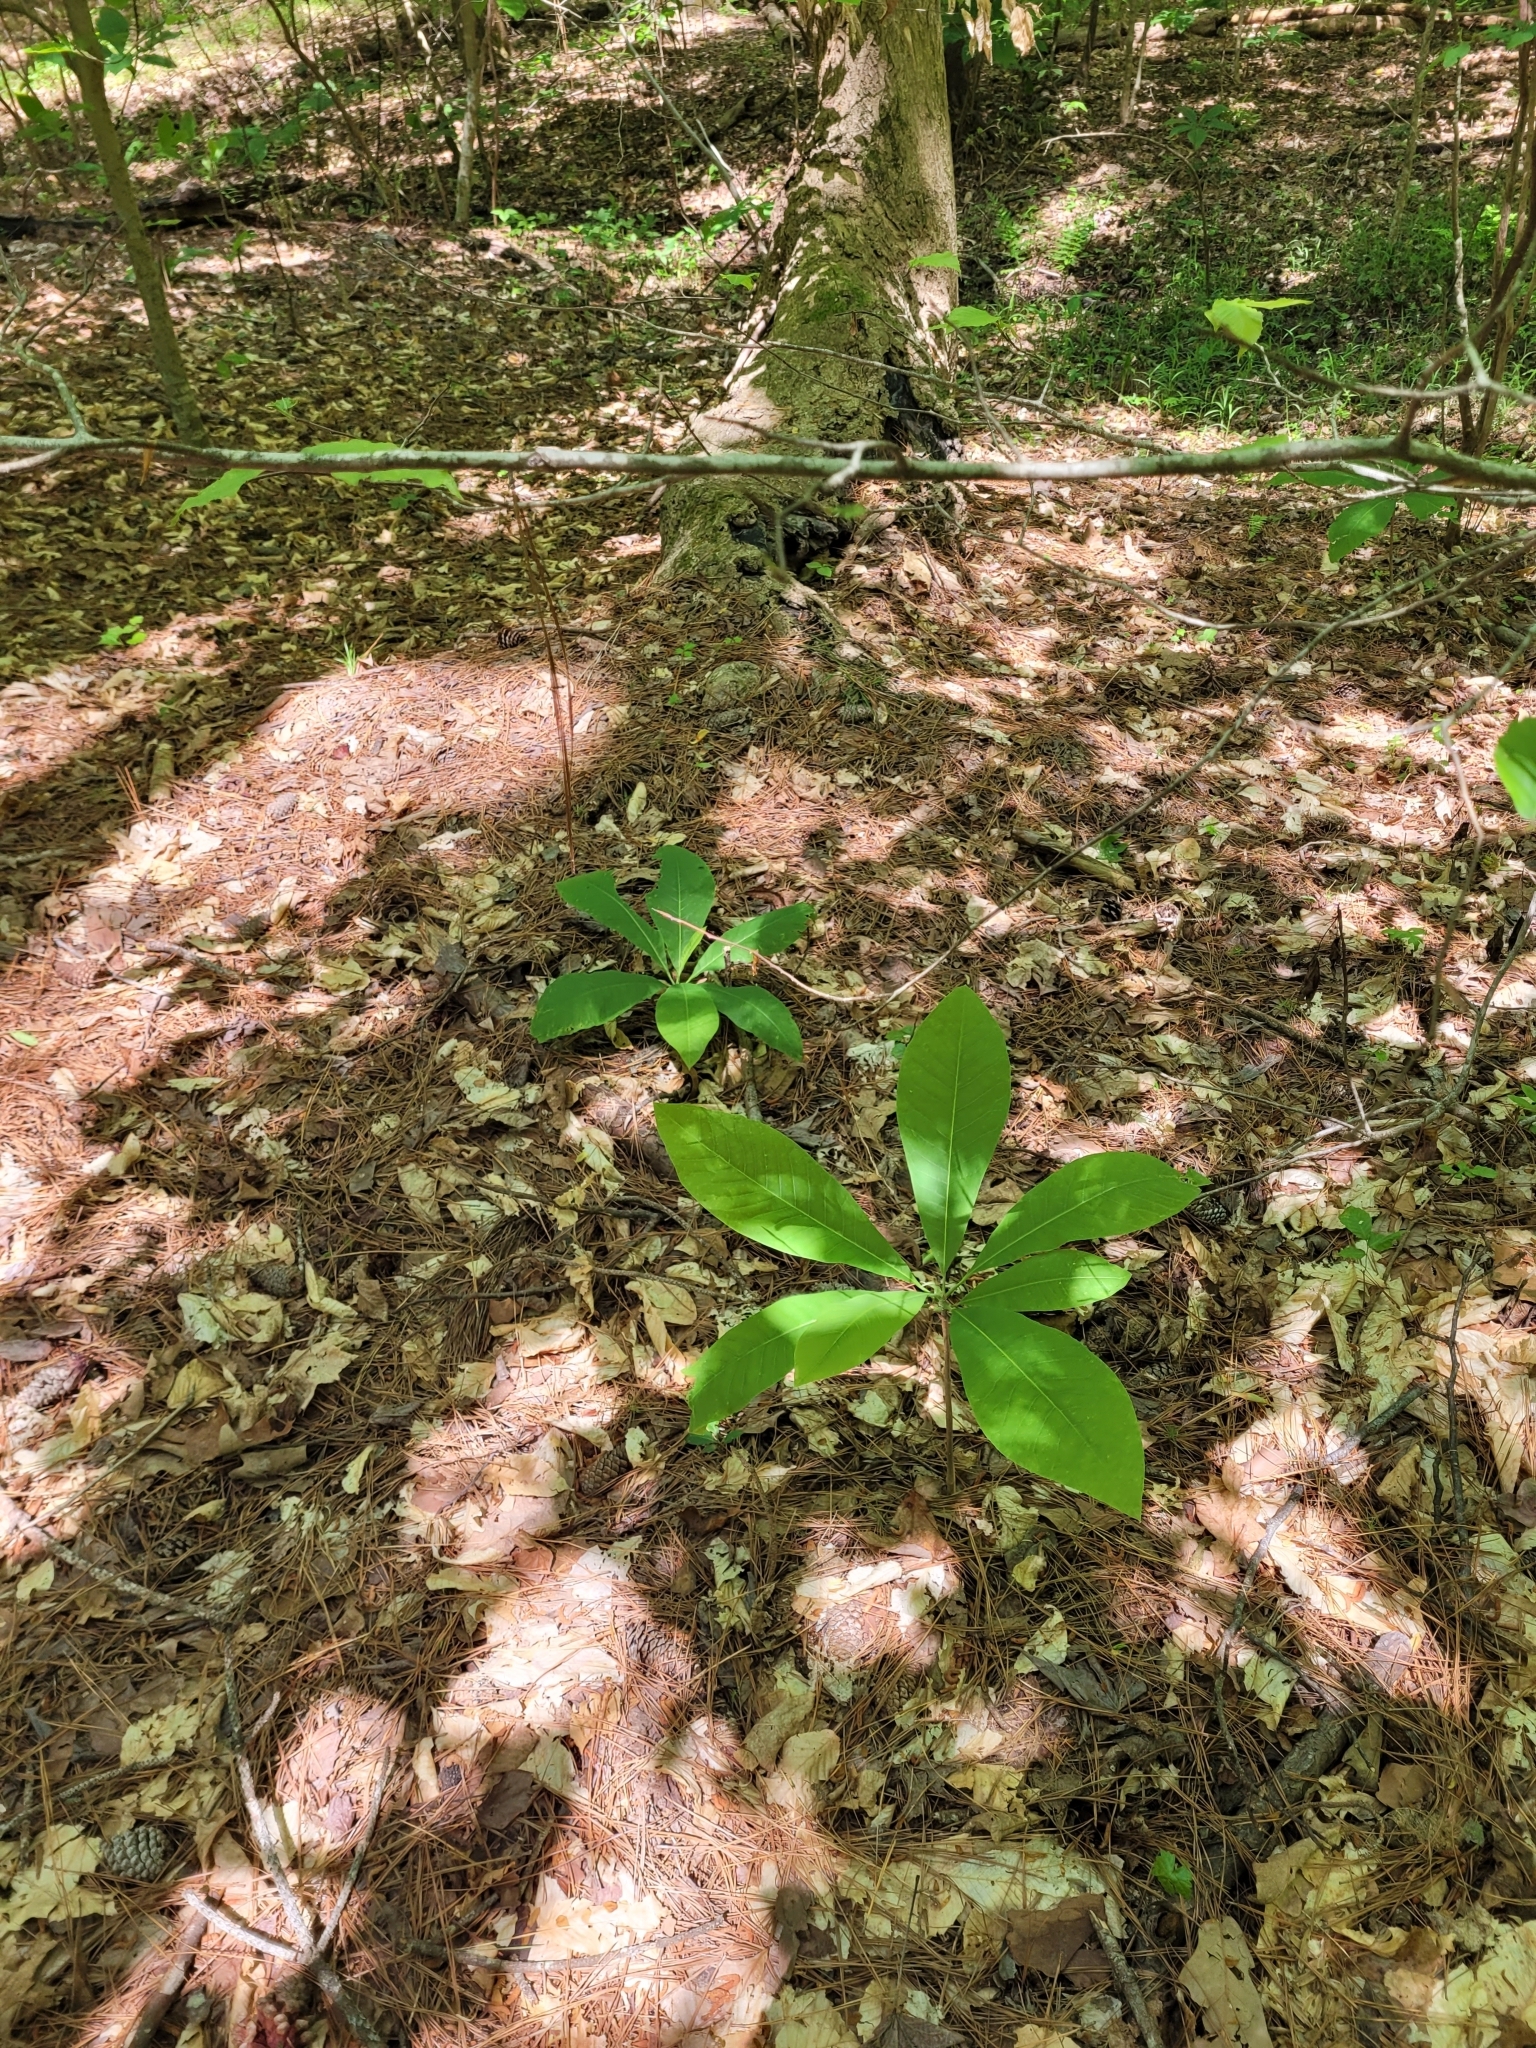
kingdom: Plantae
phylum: Tracheophyta
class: Magnoliopsida
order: Magnoliales
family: Magnoliaceae
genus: Magnolia
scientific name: Magnolia tripetala
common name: Umbrella magnolia
